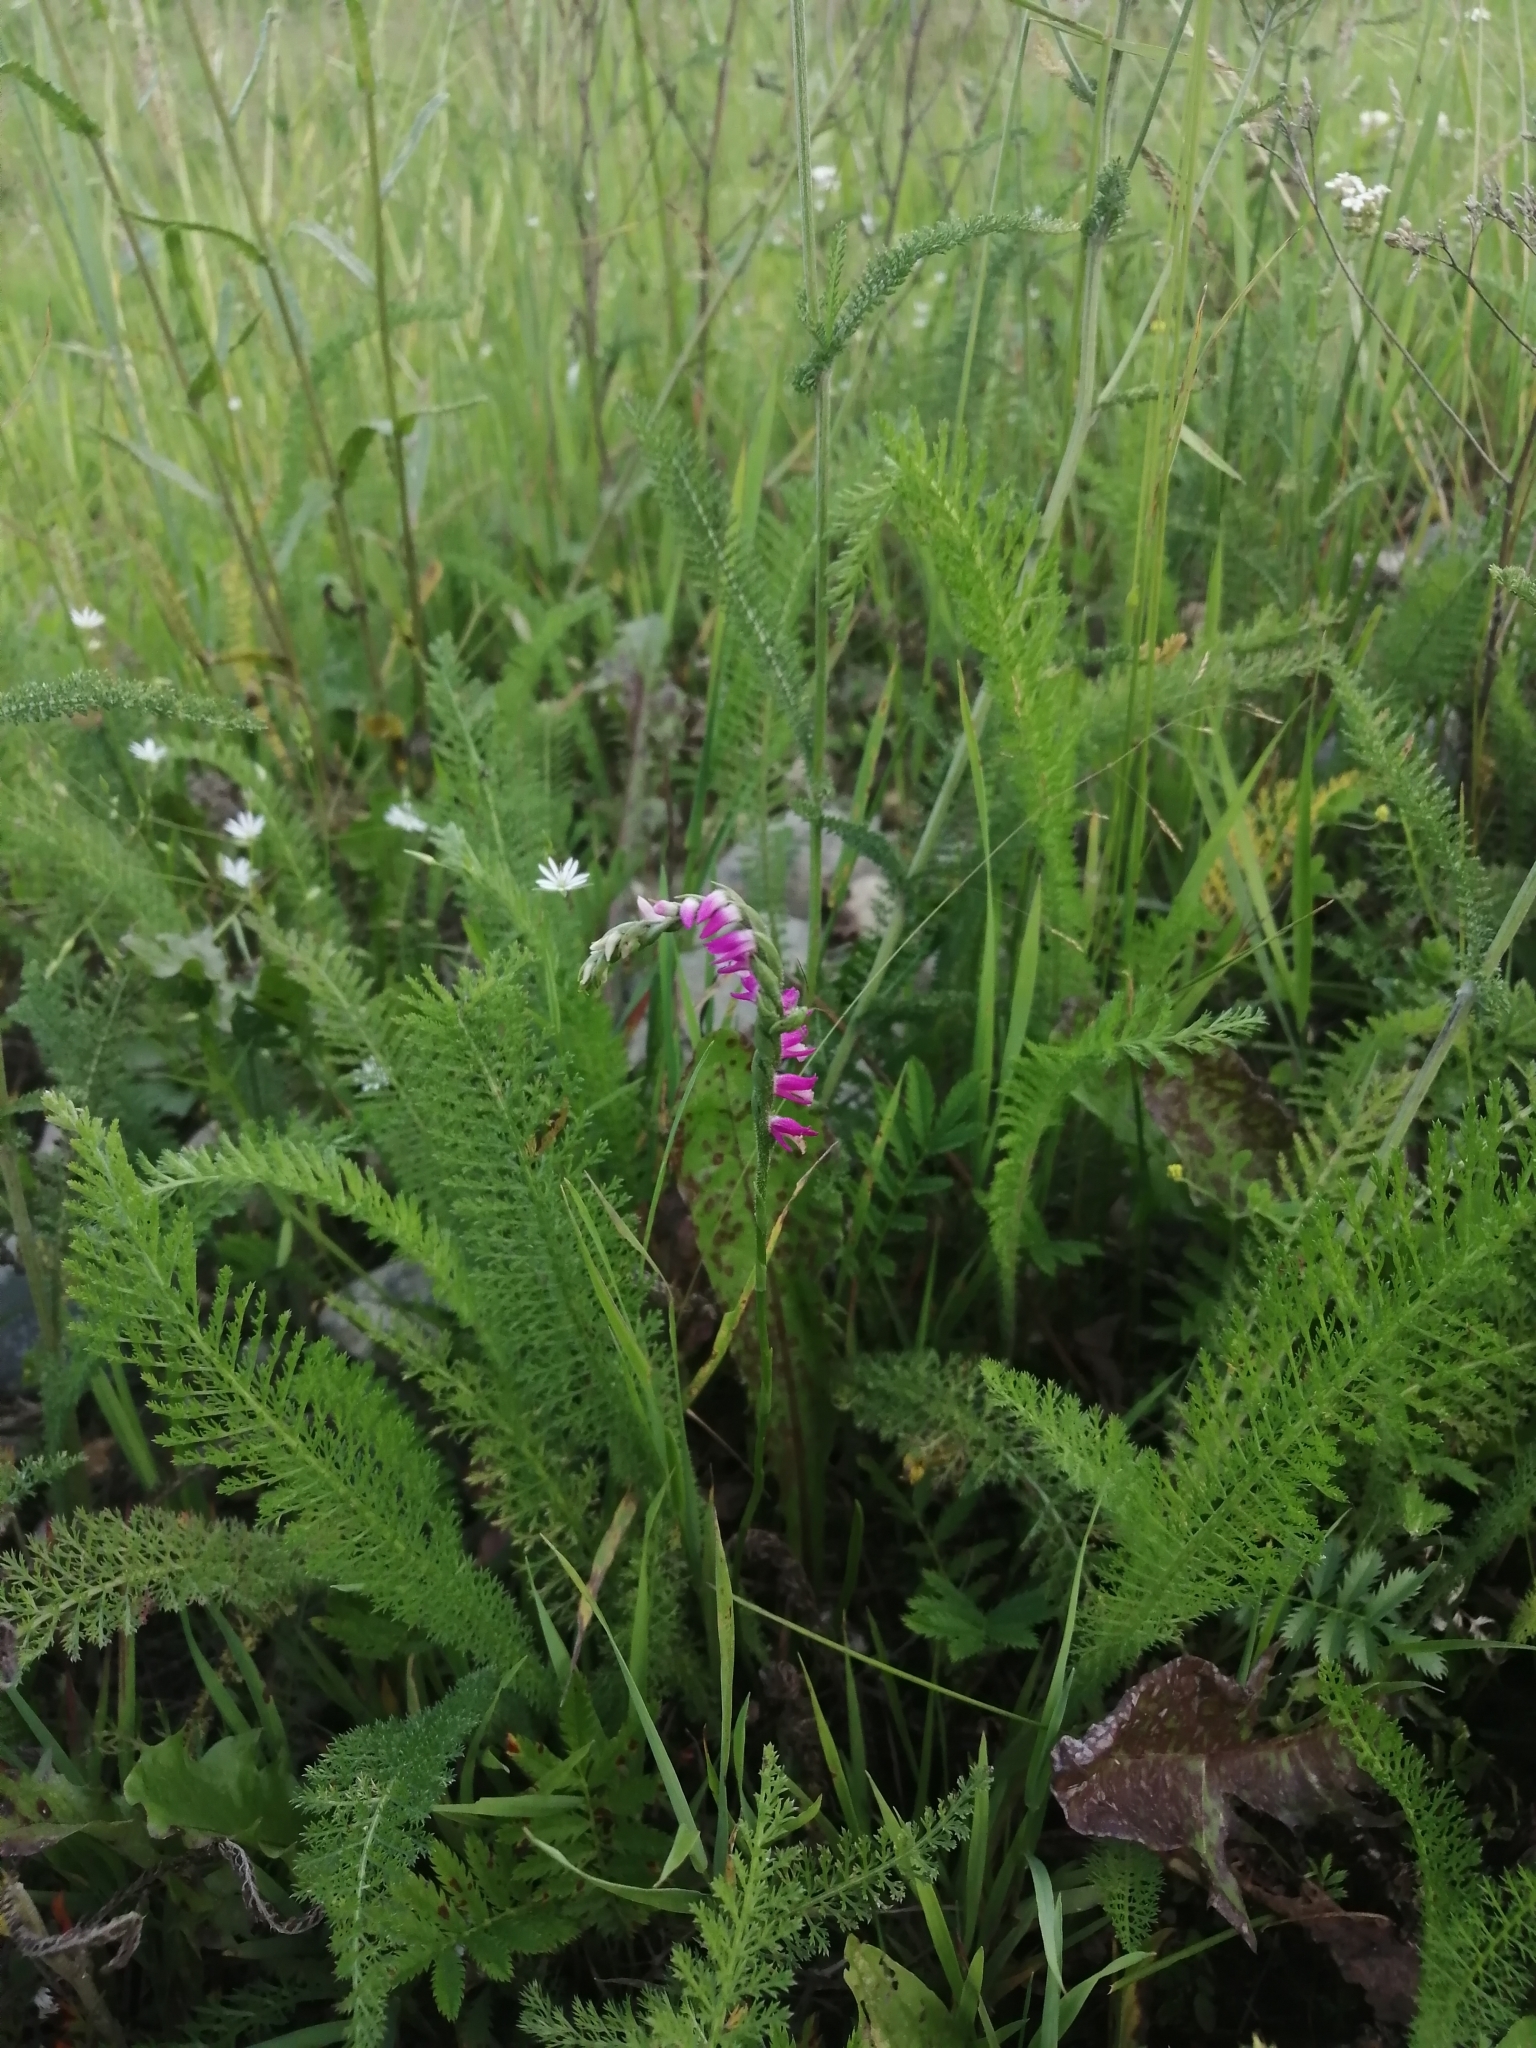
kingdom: Plantae
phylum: Tracheophyta
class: Liliopsida
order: Asparagales
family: Orchidaceae
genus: Spiranthes
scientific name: Spiranthes australis
